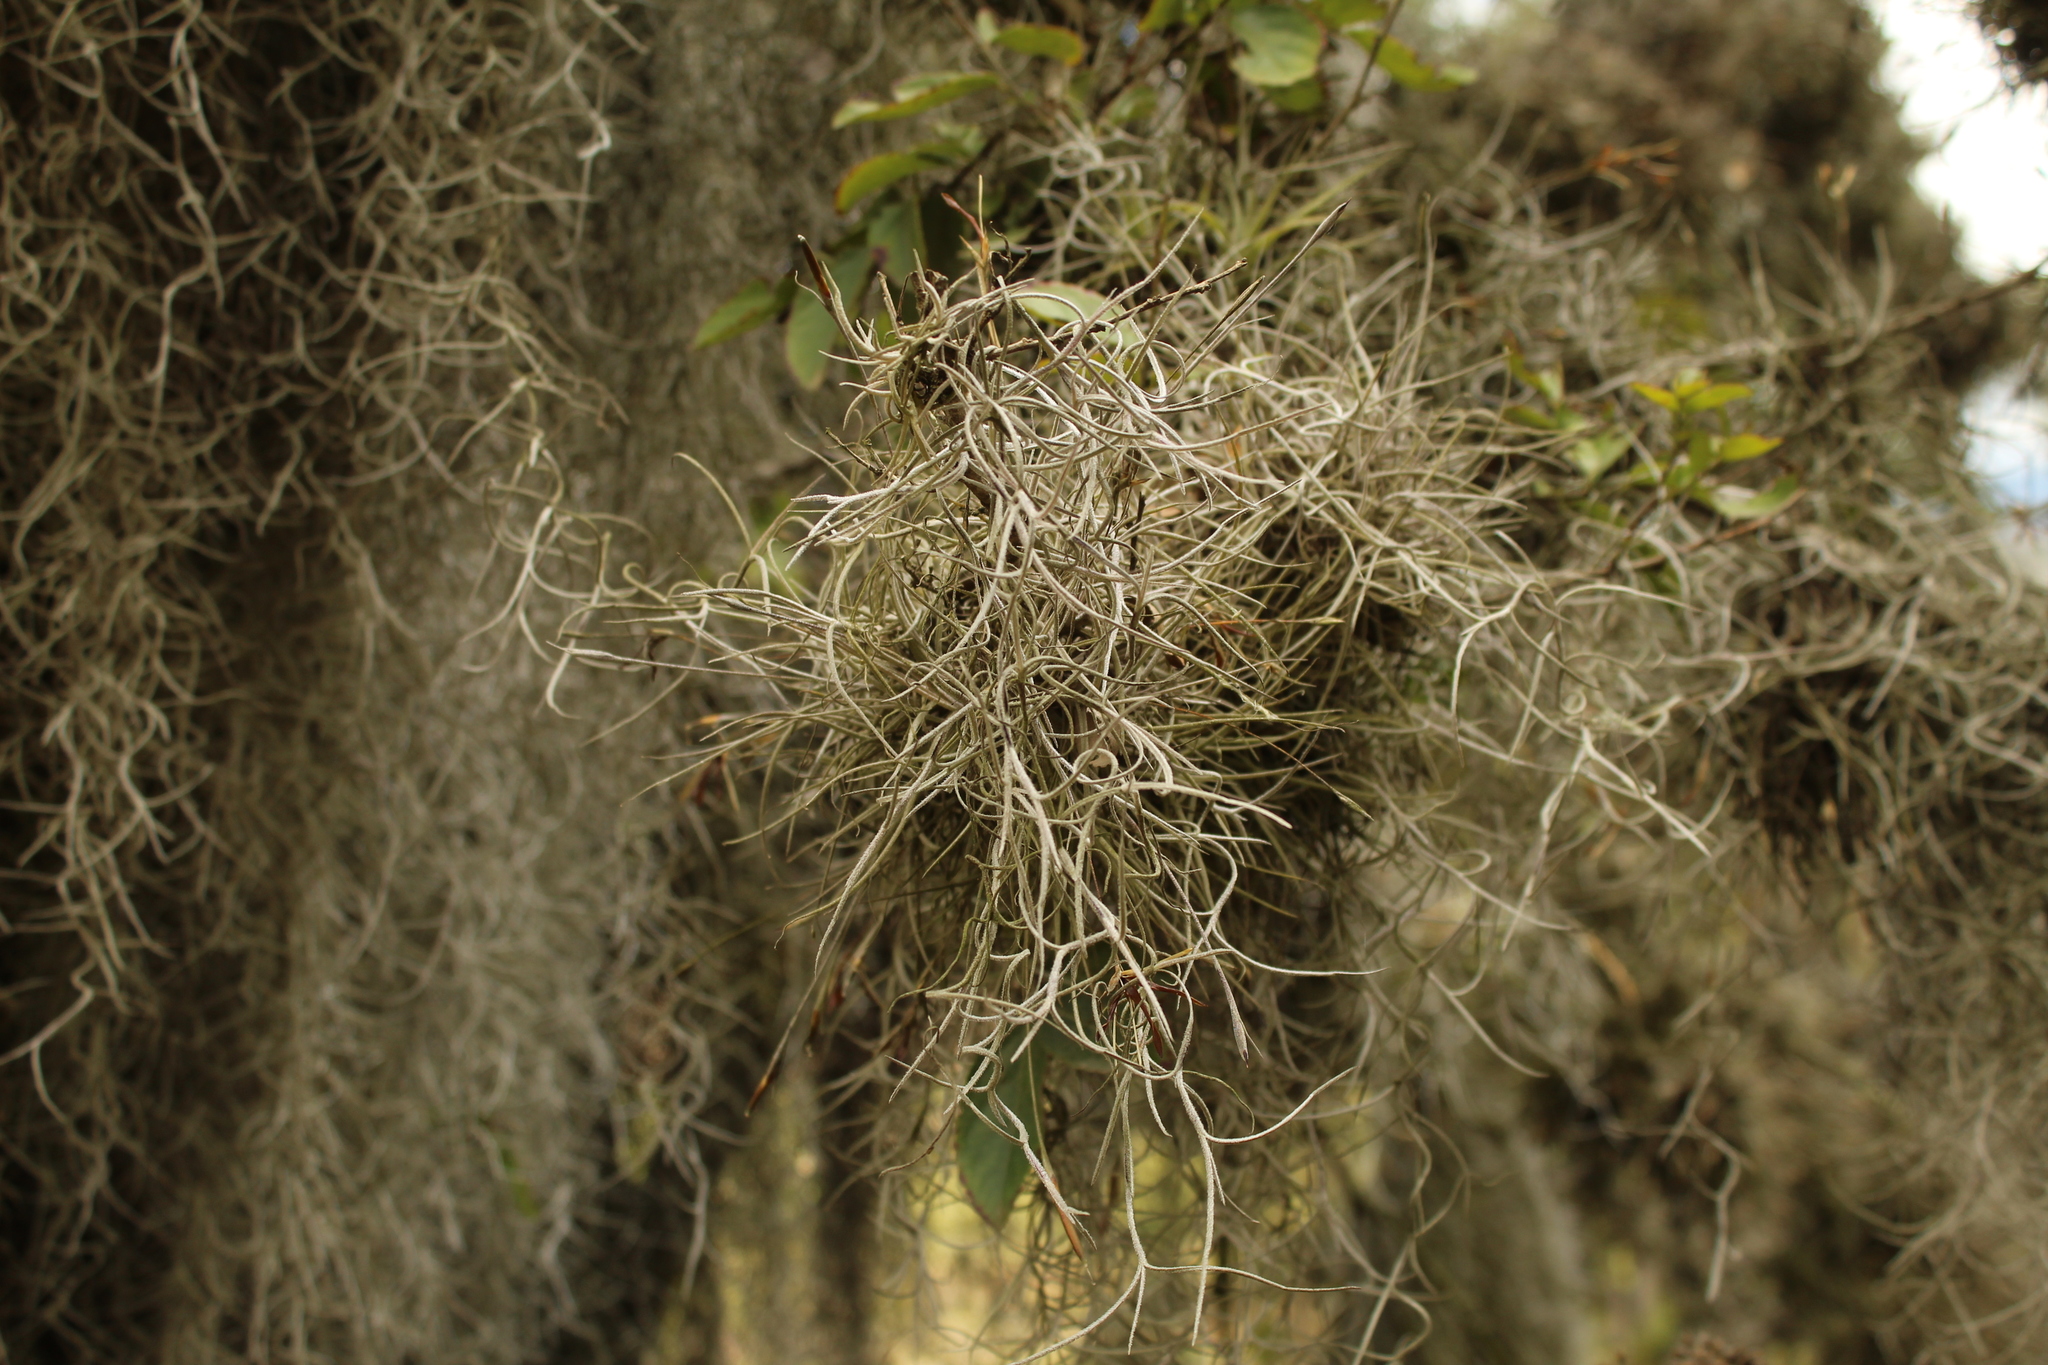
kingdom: Plantae
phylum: Tracheophyta
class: Liliopsida
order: Poales
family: Bromeliaceae
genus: Tillandsia
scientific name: Tillandsia usneoides
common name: Spanish moss
